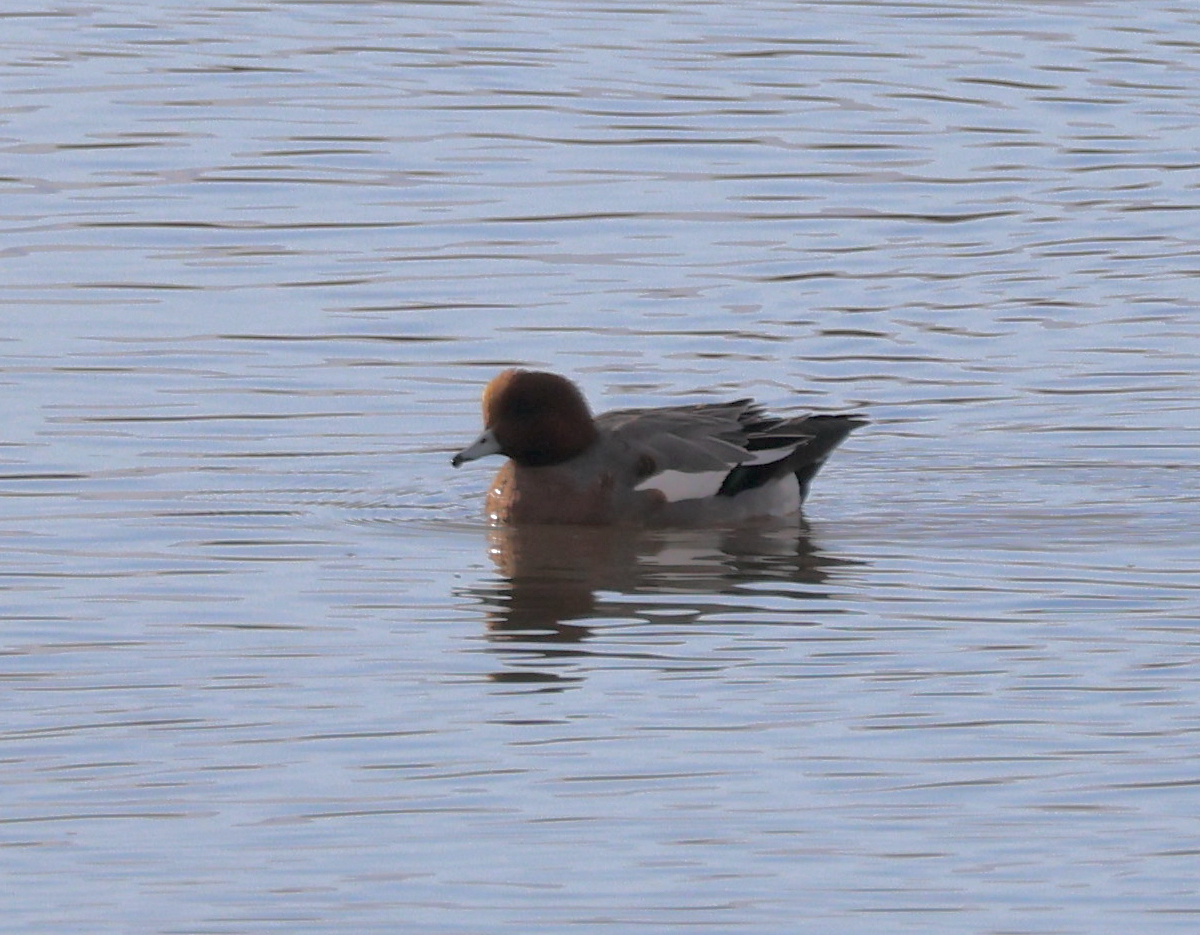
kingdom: Animalia
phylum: Chordata
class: Aves
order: Anseriformes
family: Anatidae
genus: Mareca
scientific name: Mareca penelope
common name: Eurasian wigeon
